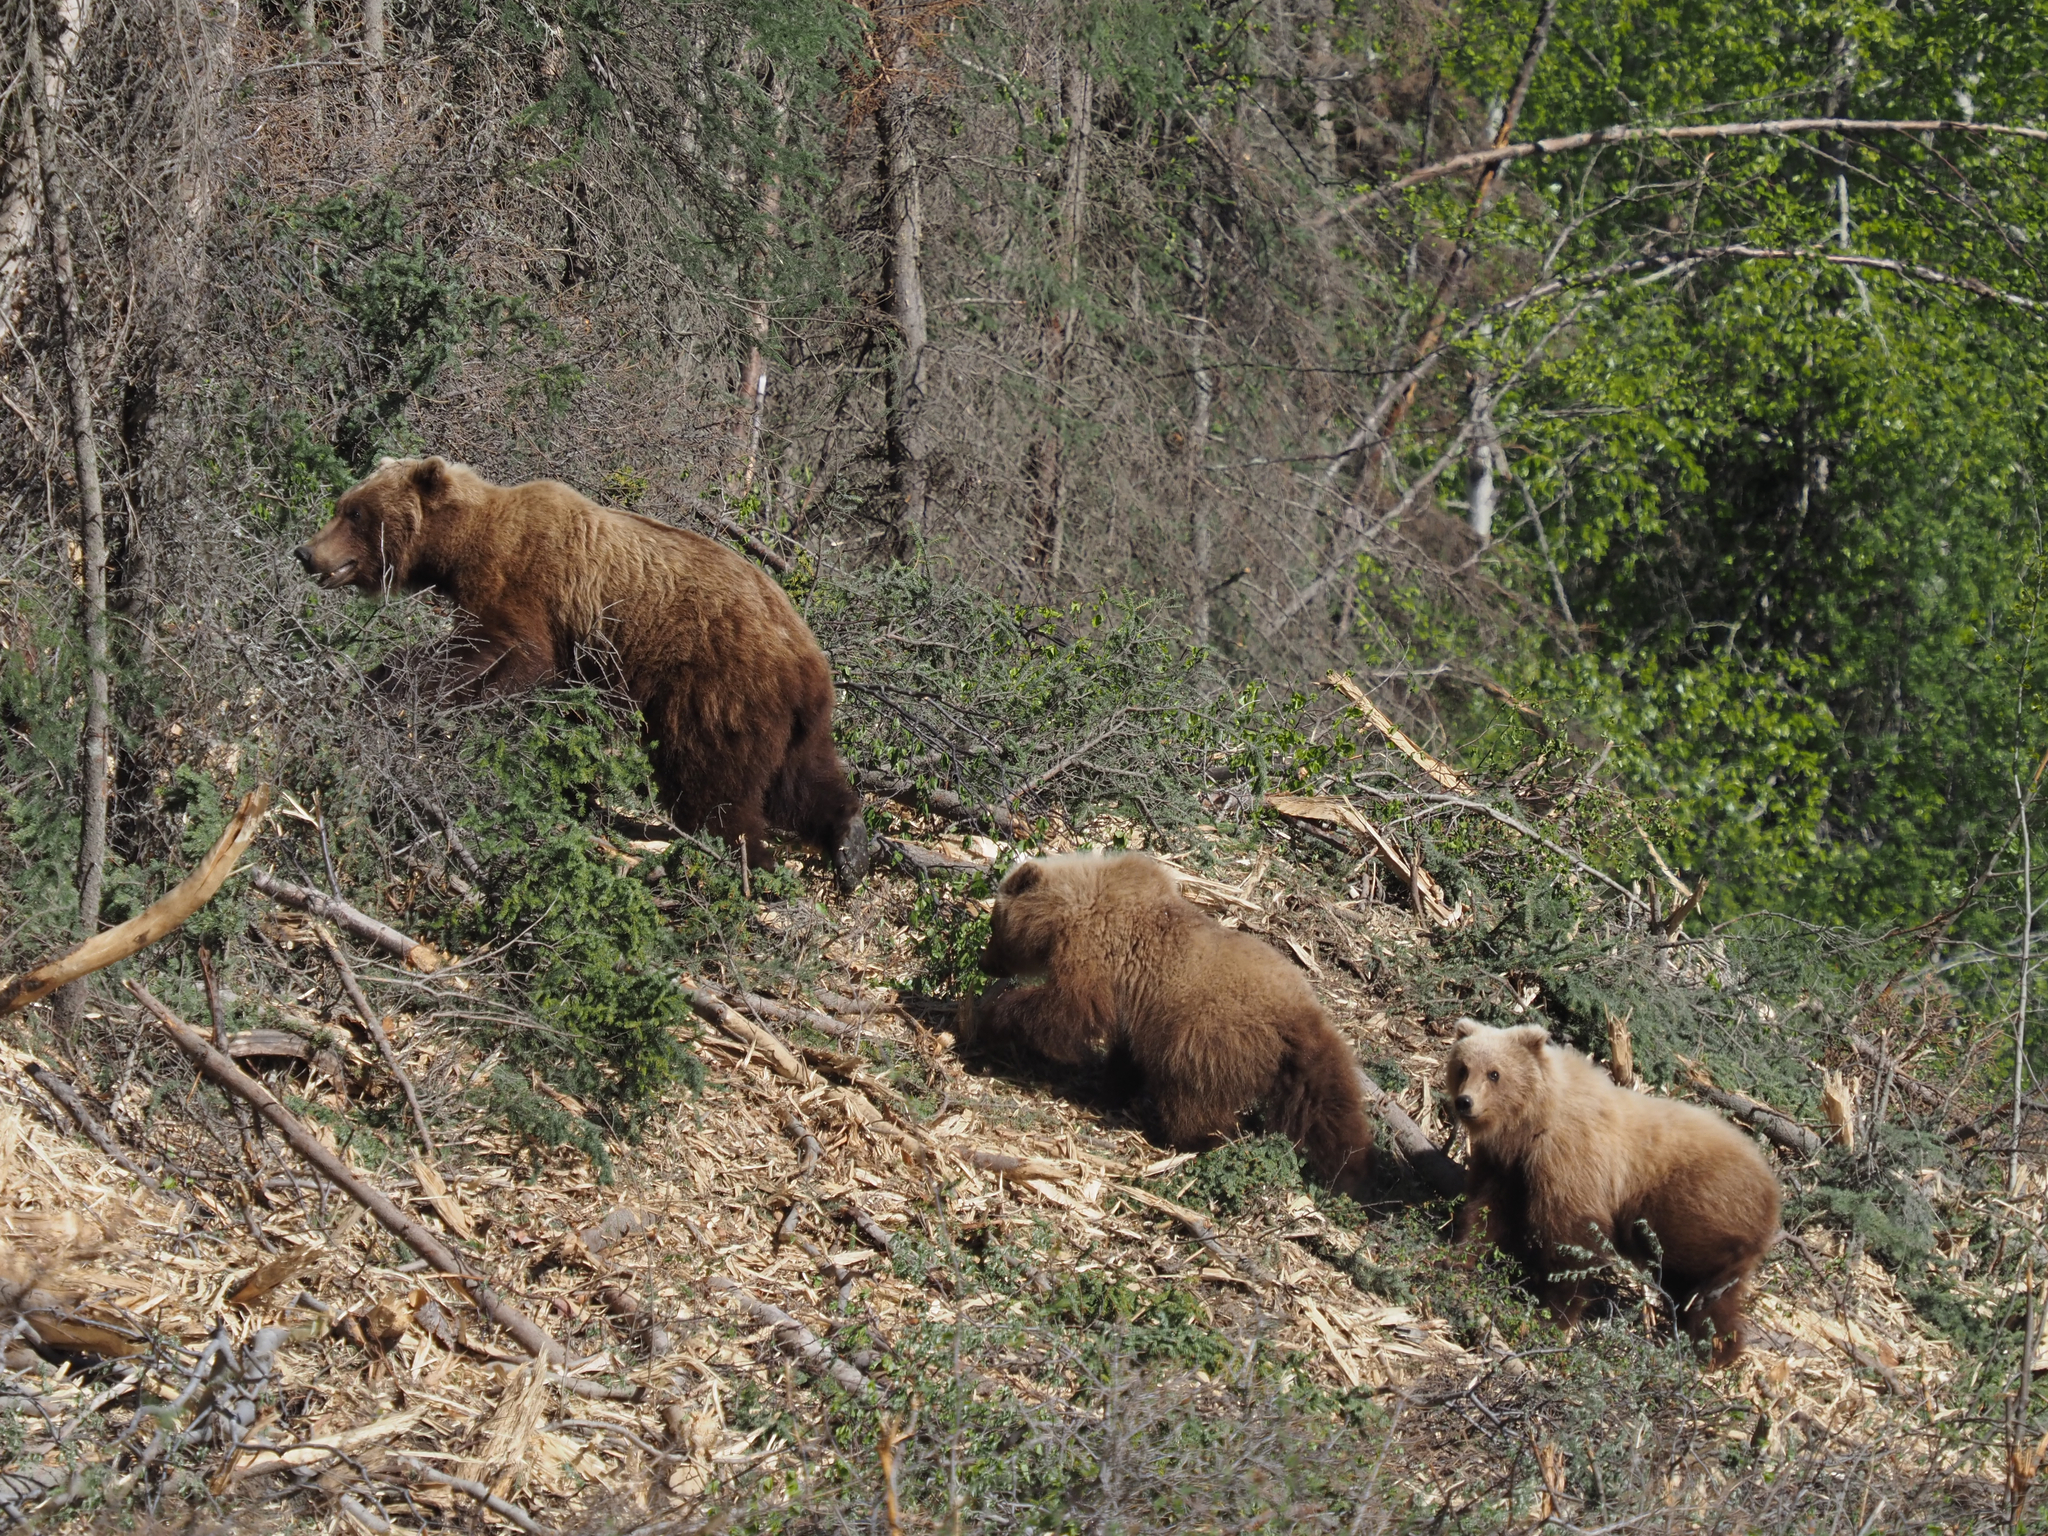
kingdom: Animalia
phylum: Chordata
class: Mammalia
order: Carnivora
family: Ursidae
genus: Ursus
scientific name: Ursus arctos
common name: Brown bear
